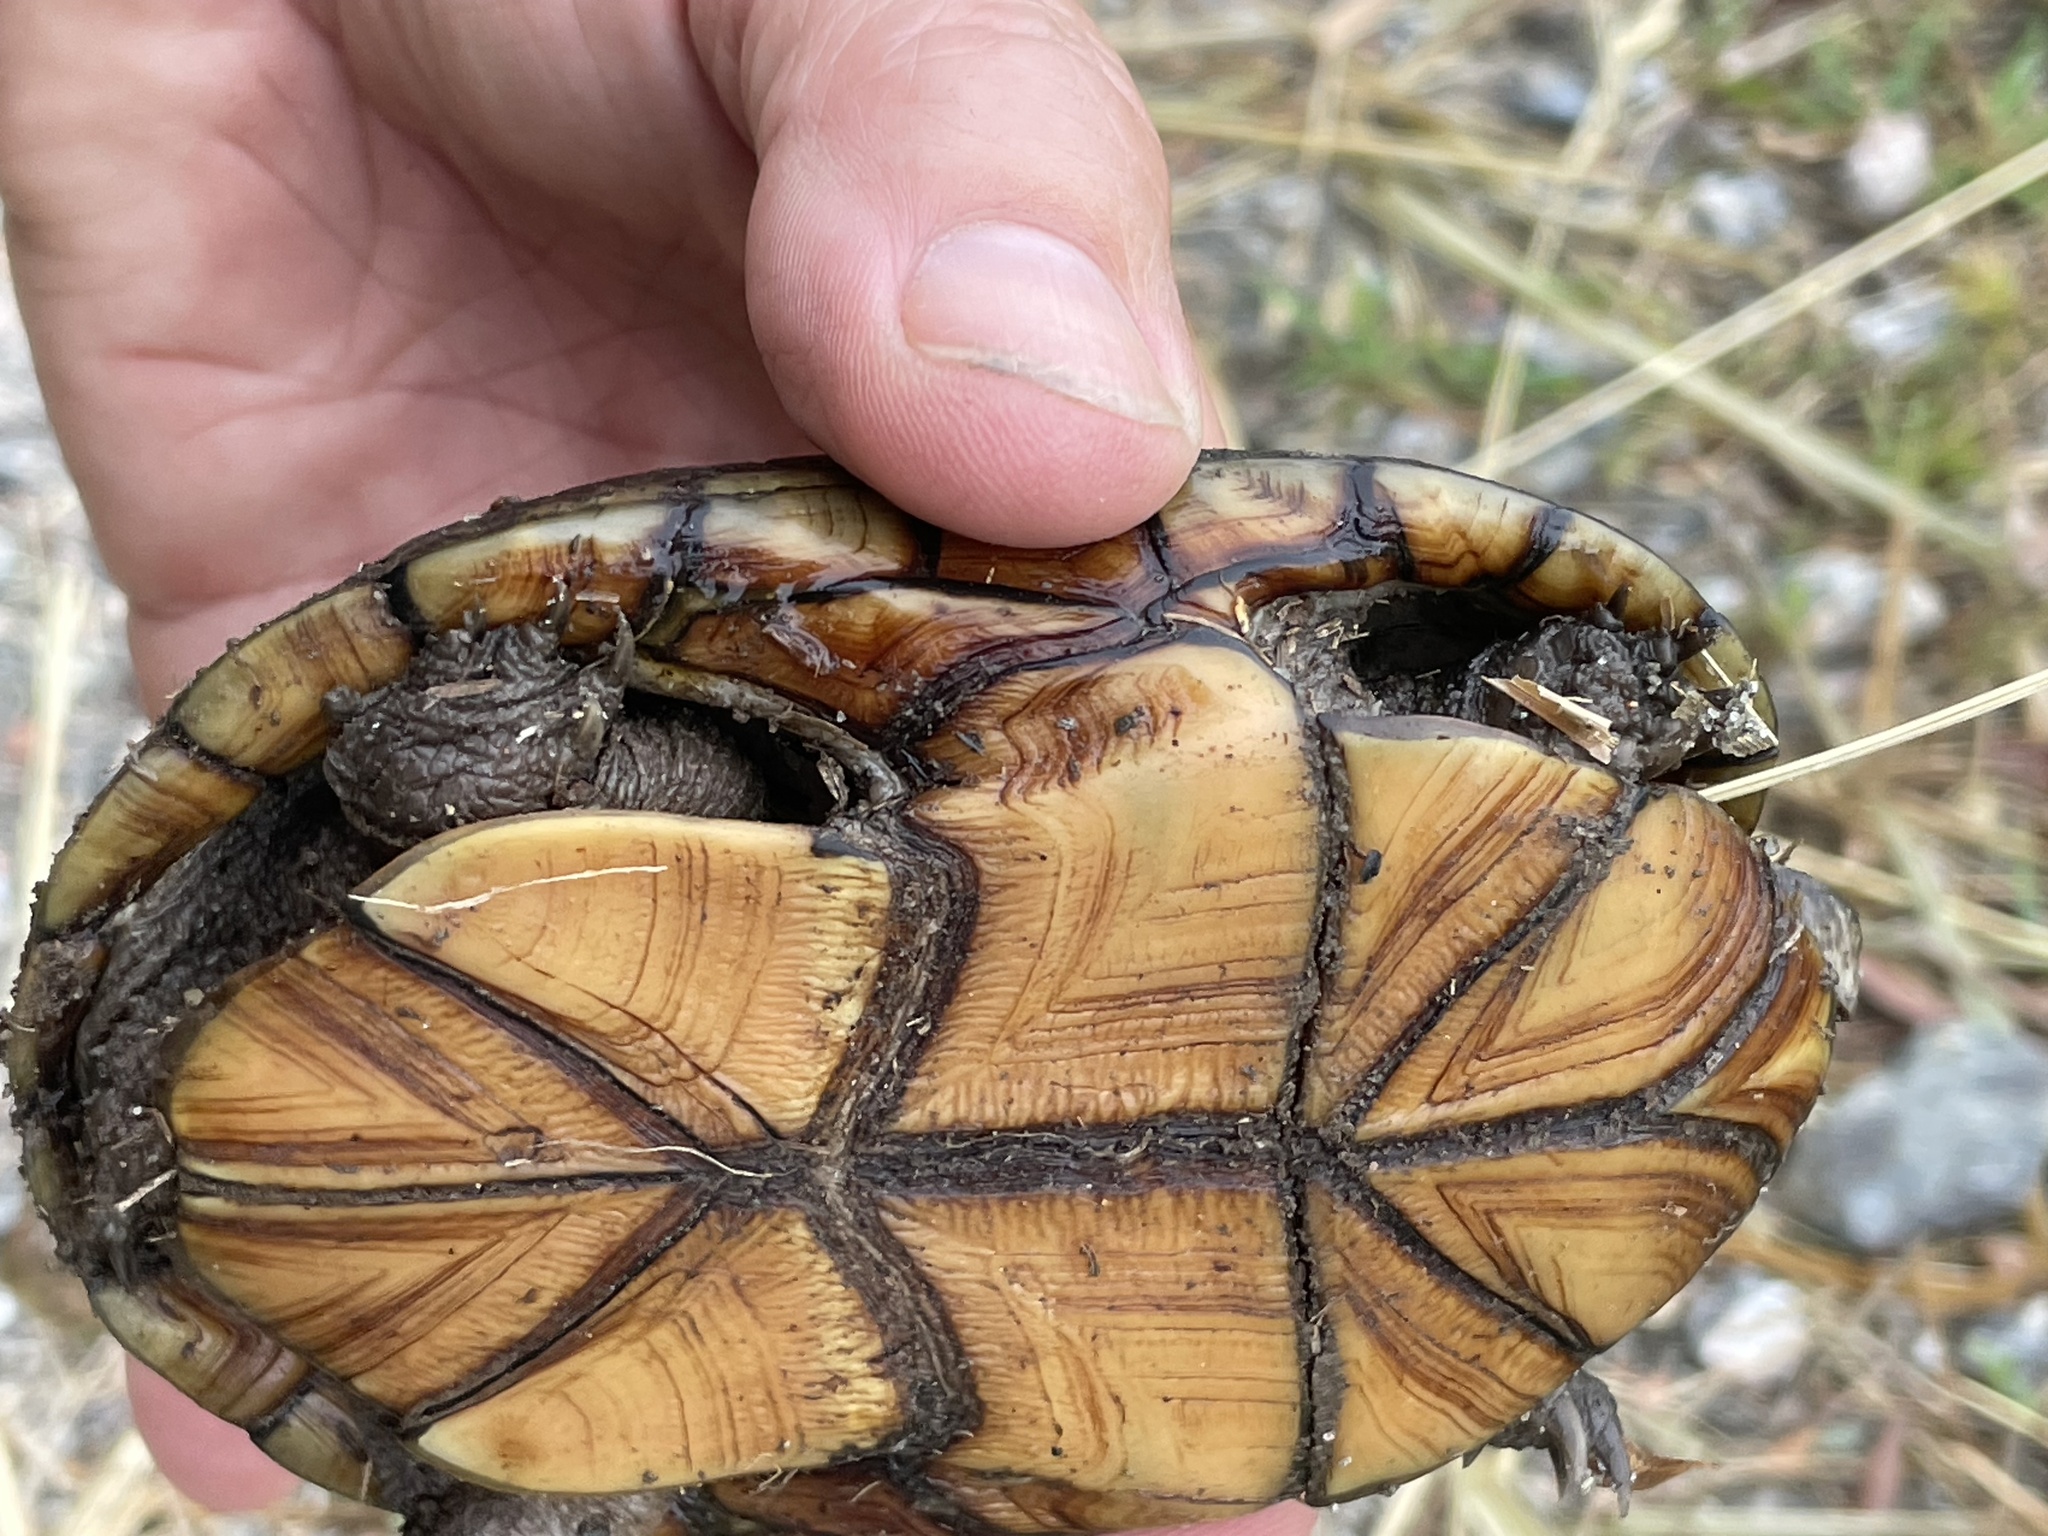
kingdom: Animalia
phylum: Chordata
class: Testudines
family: Kinosternidae
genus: Kinosternon
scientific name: Kinosternon subrubrum
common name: Eastern mud turtle
